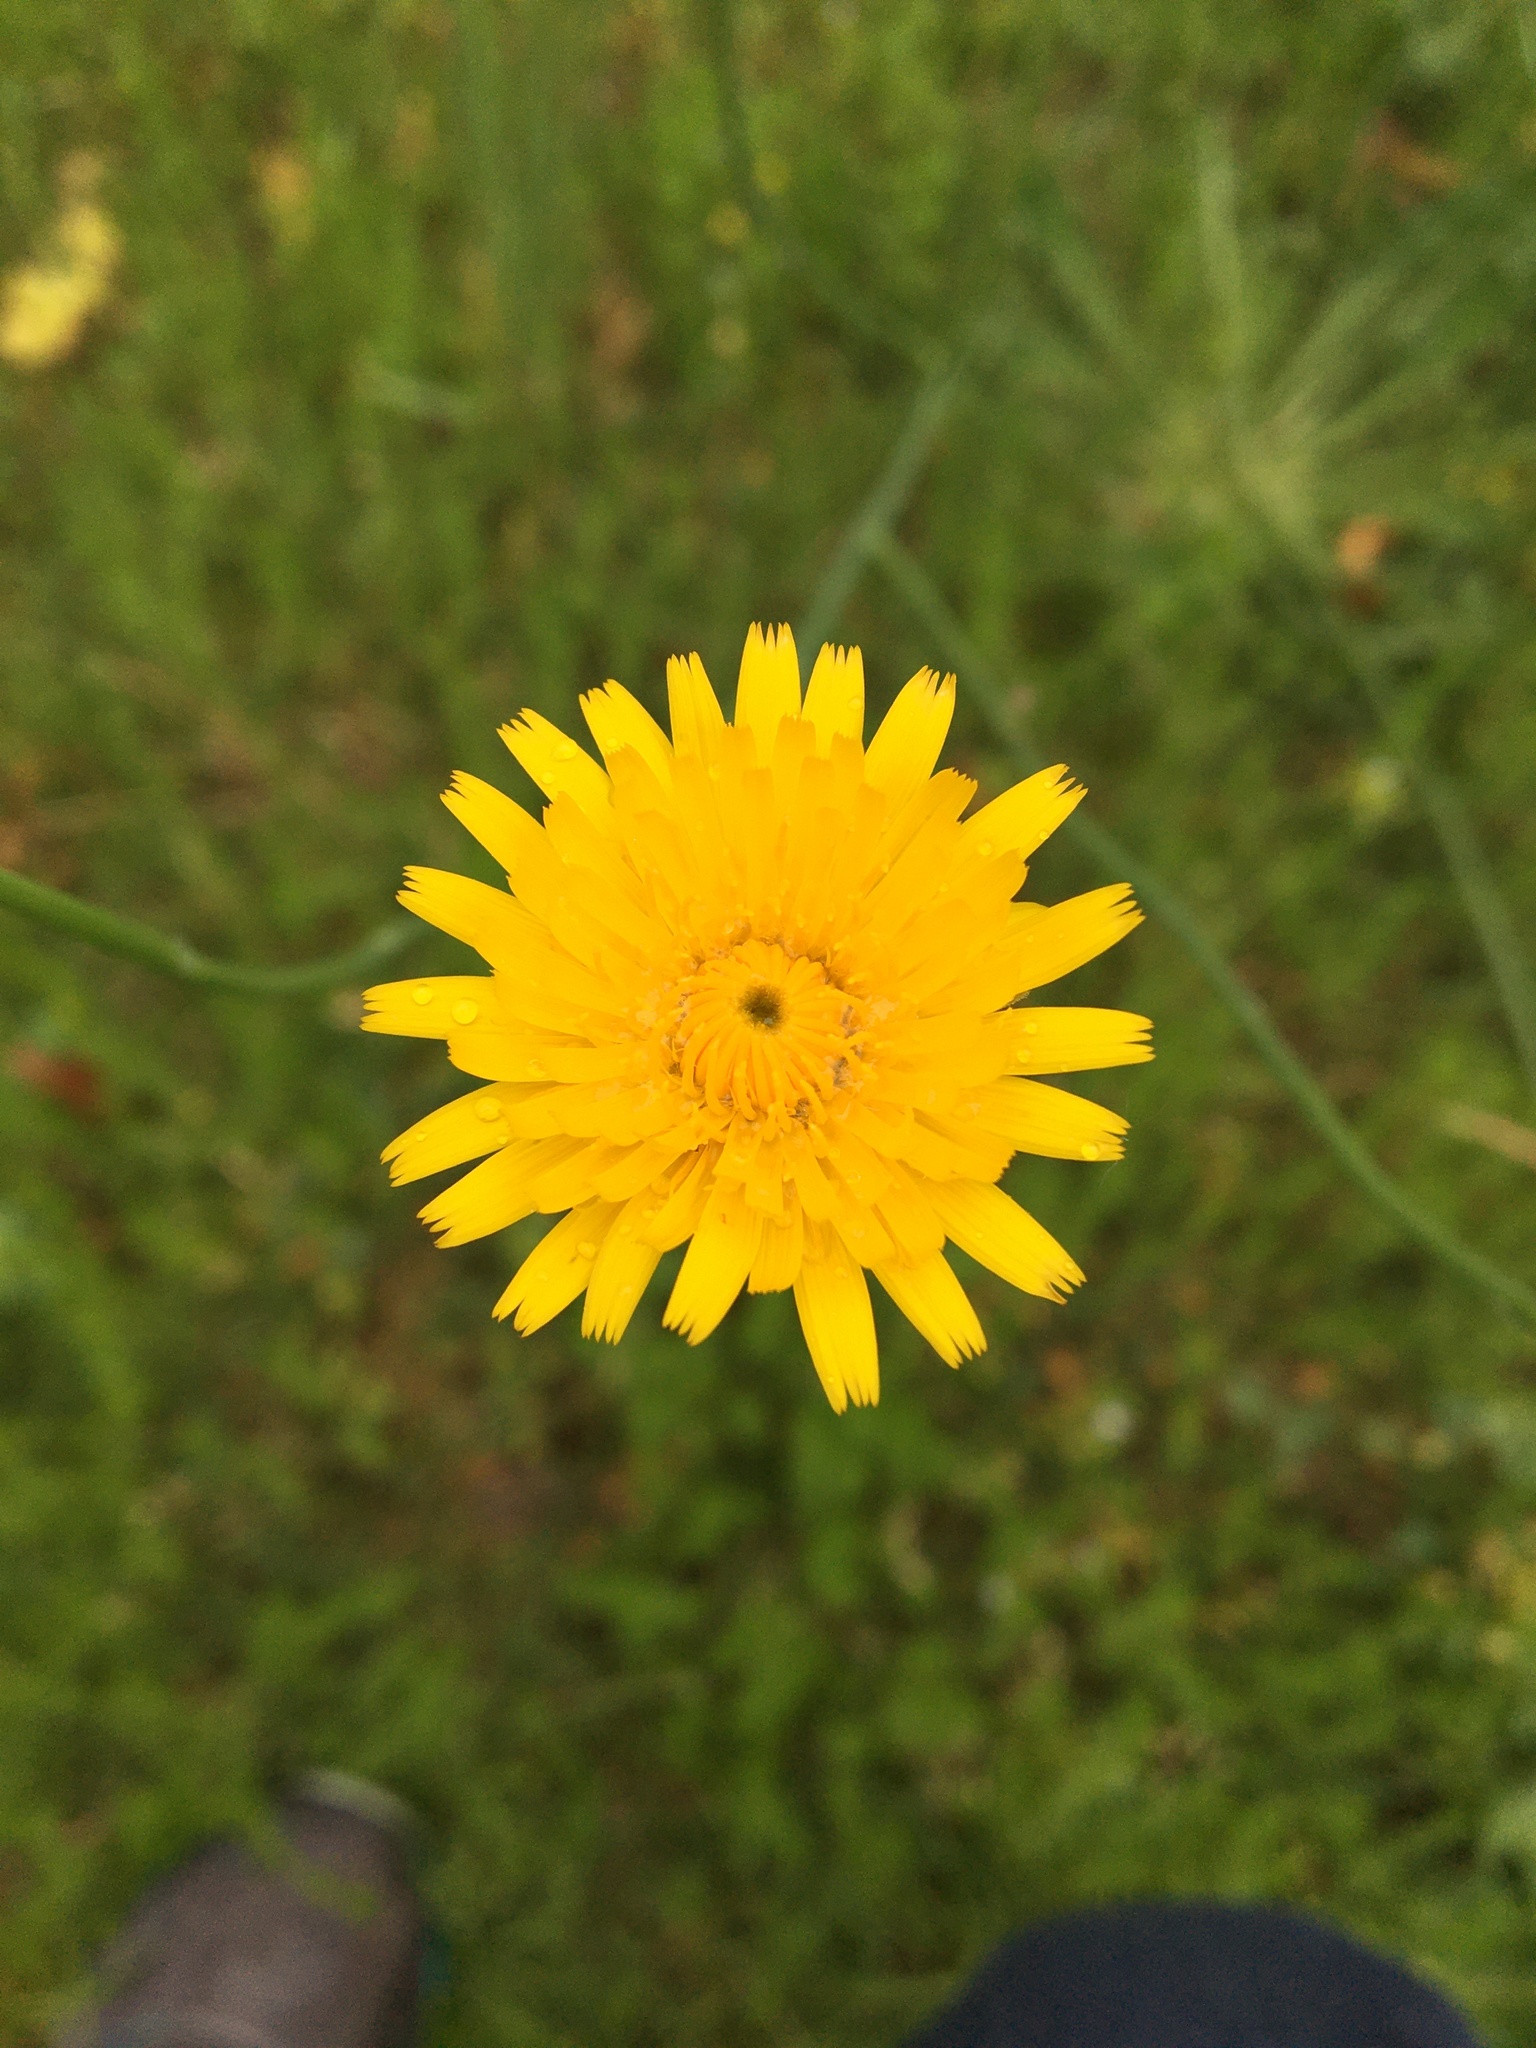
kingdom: Plantae
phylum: Tracheophyta
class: Magnoliopsida
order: Asterales
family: Asteraceae
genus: Hypochaeris
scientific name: Hypochaeris radicata
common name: Flatweed
